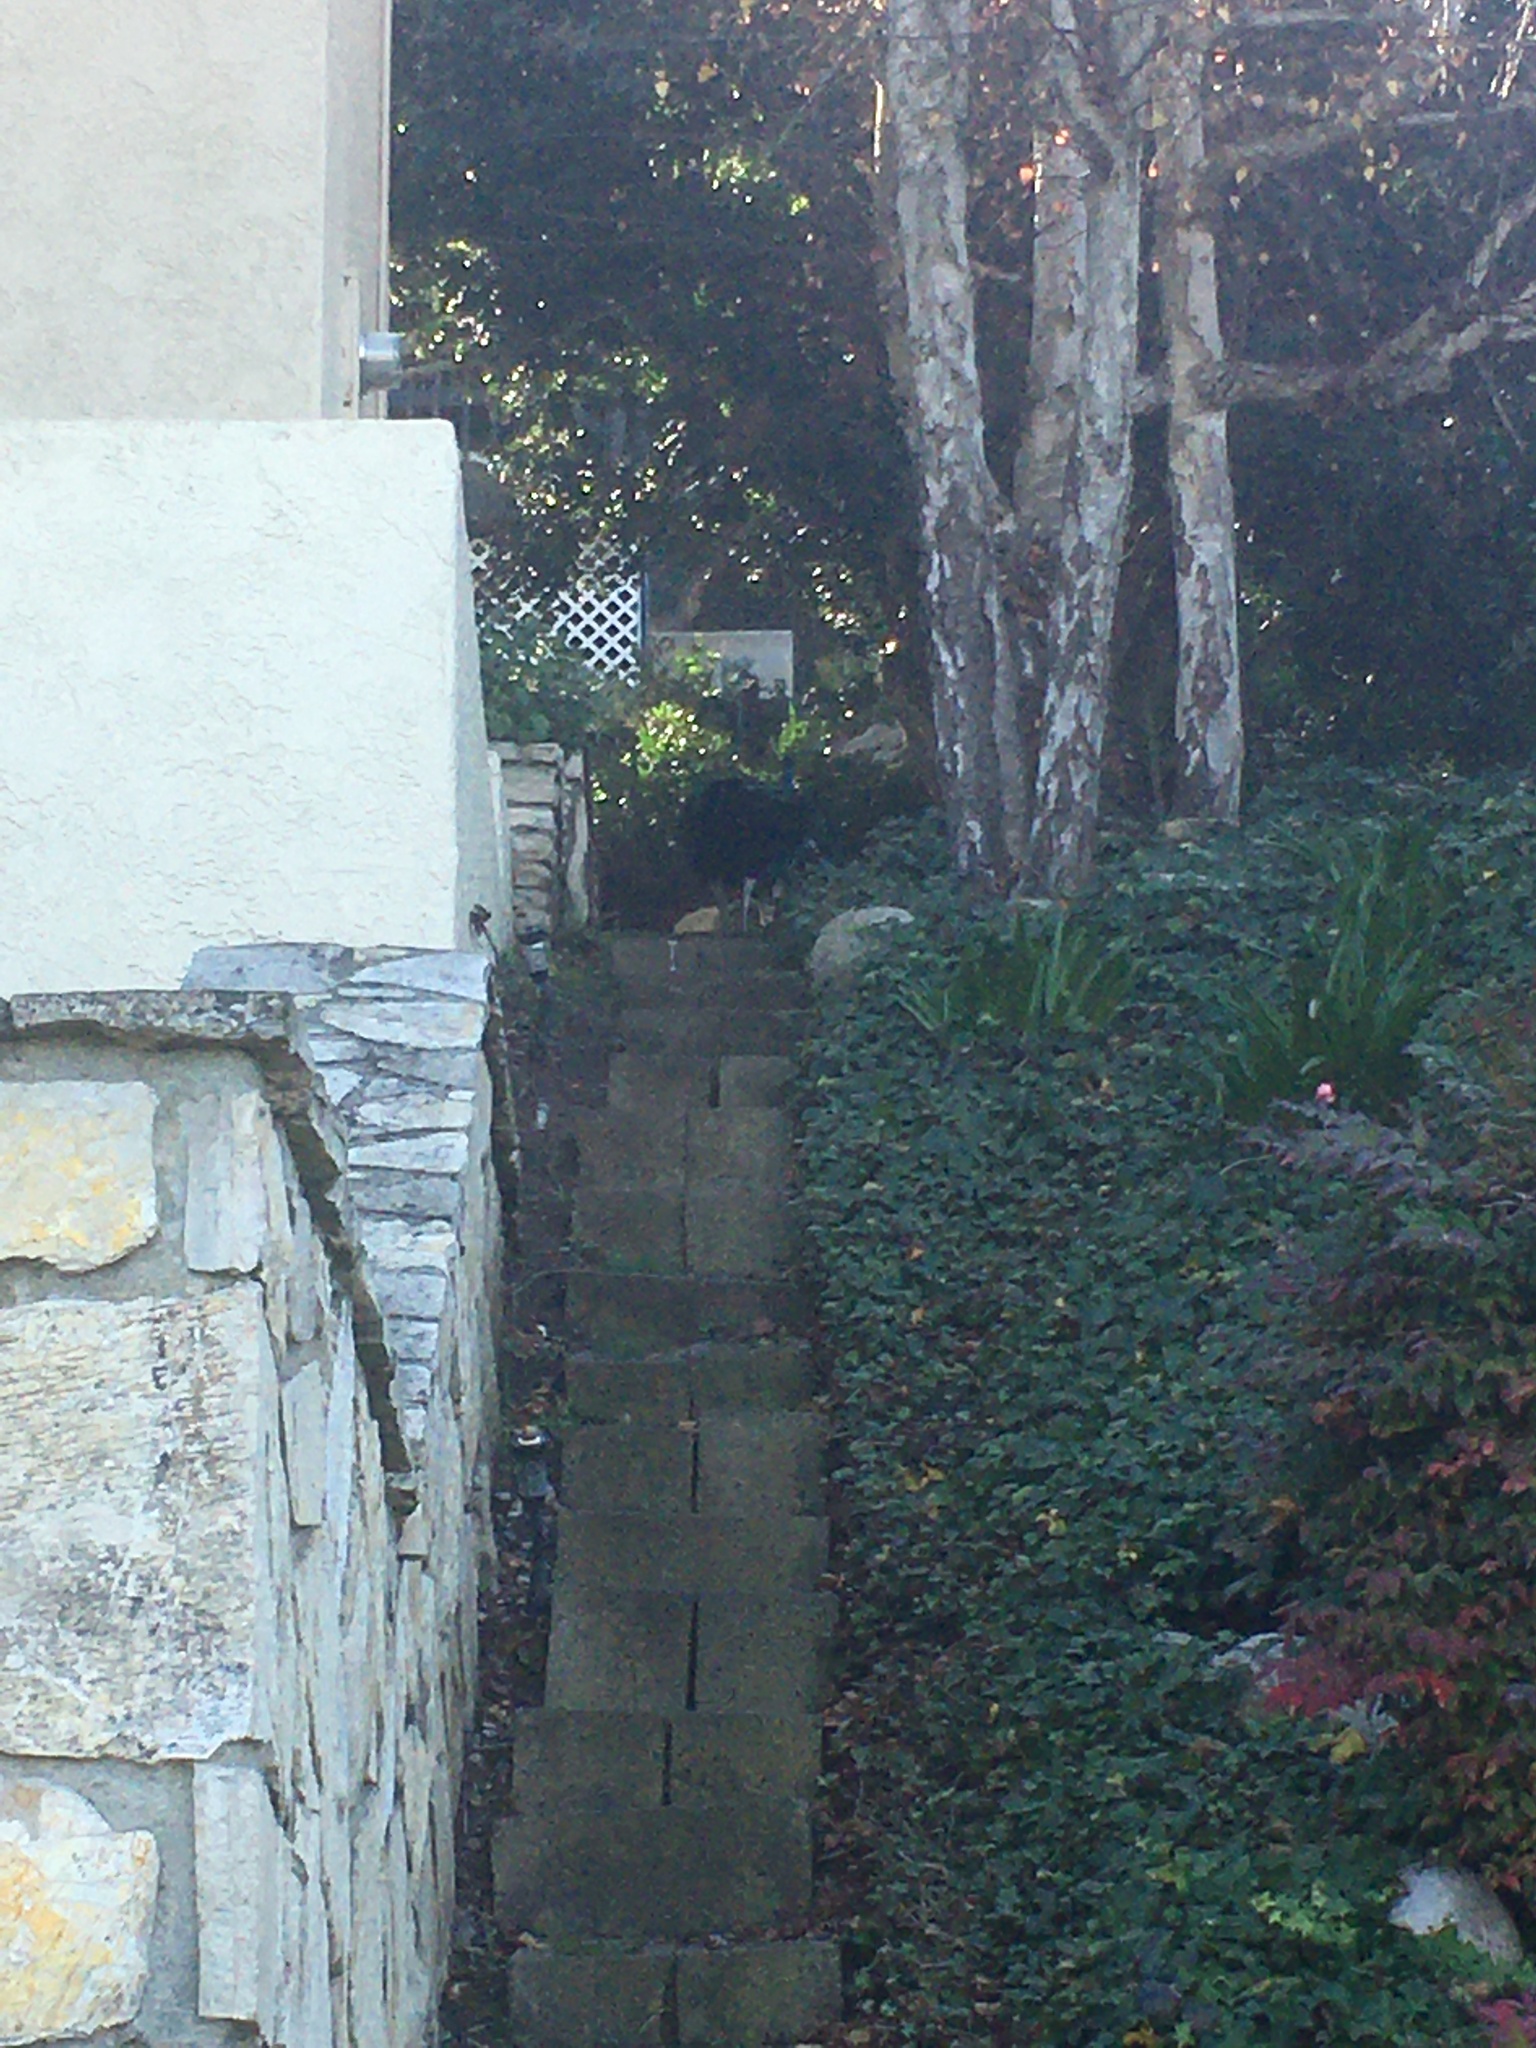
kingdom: Animalia
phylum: Chordata
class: Aves
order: Galliformes
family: Phasianidae
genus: Pavo
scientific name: Pavo cristatus
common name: Indian peafowl
